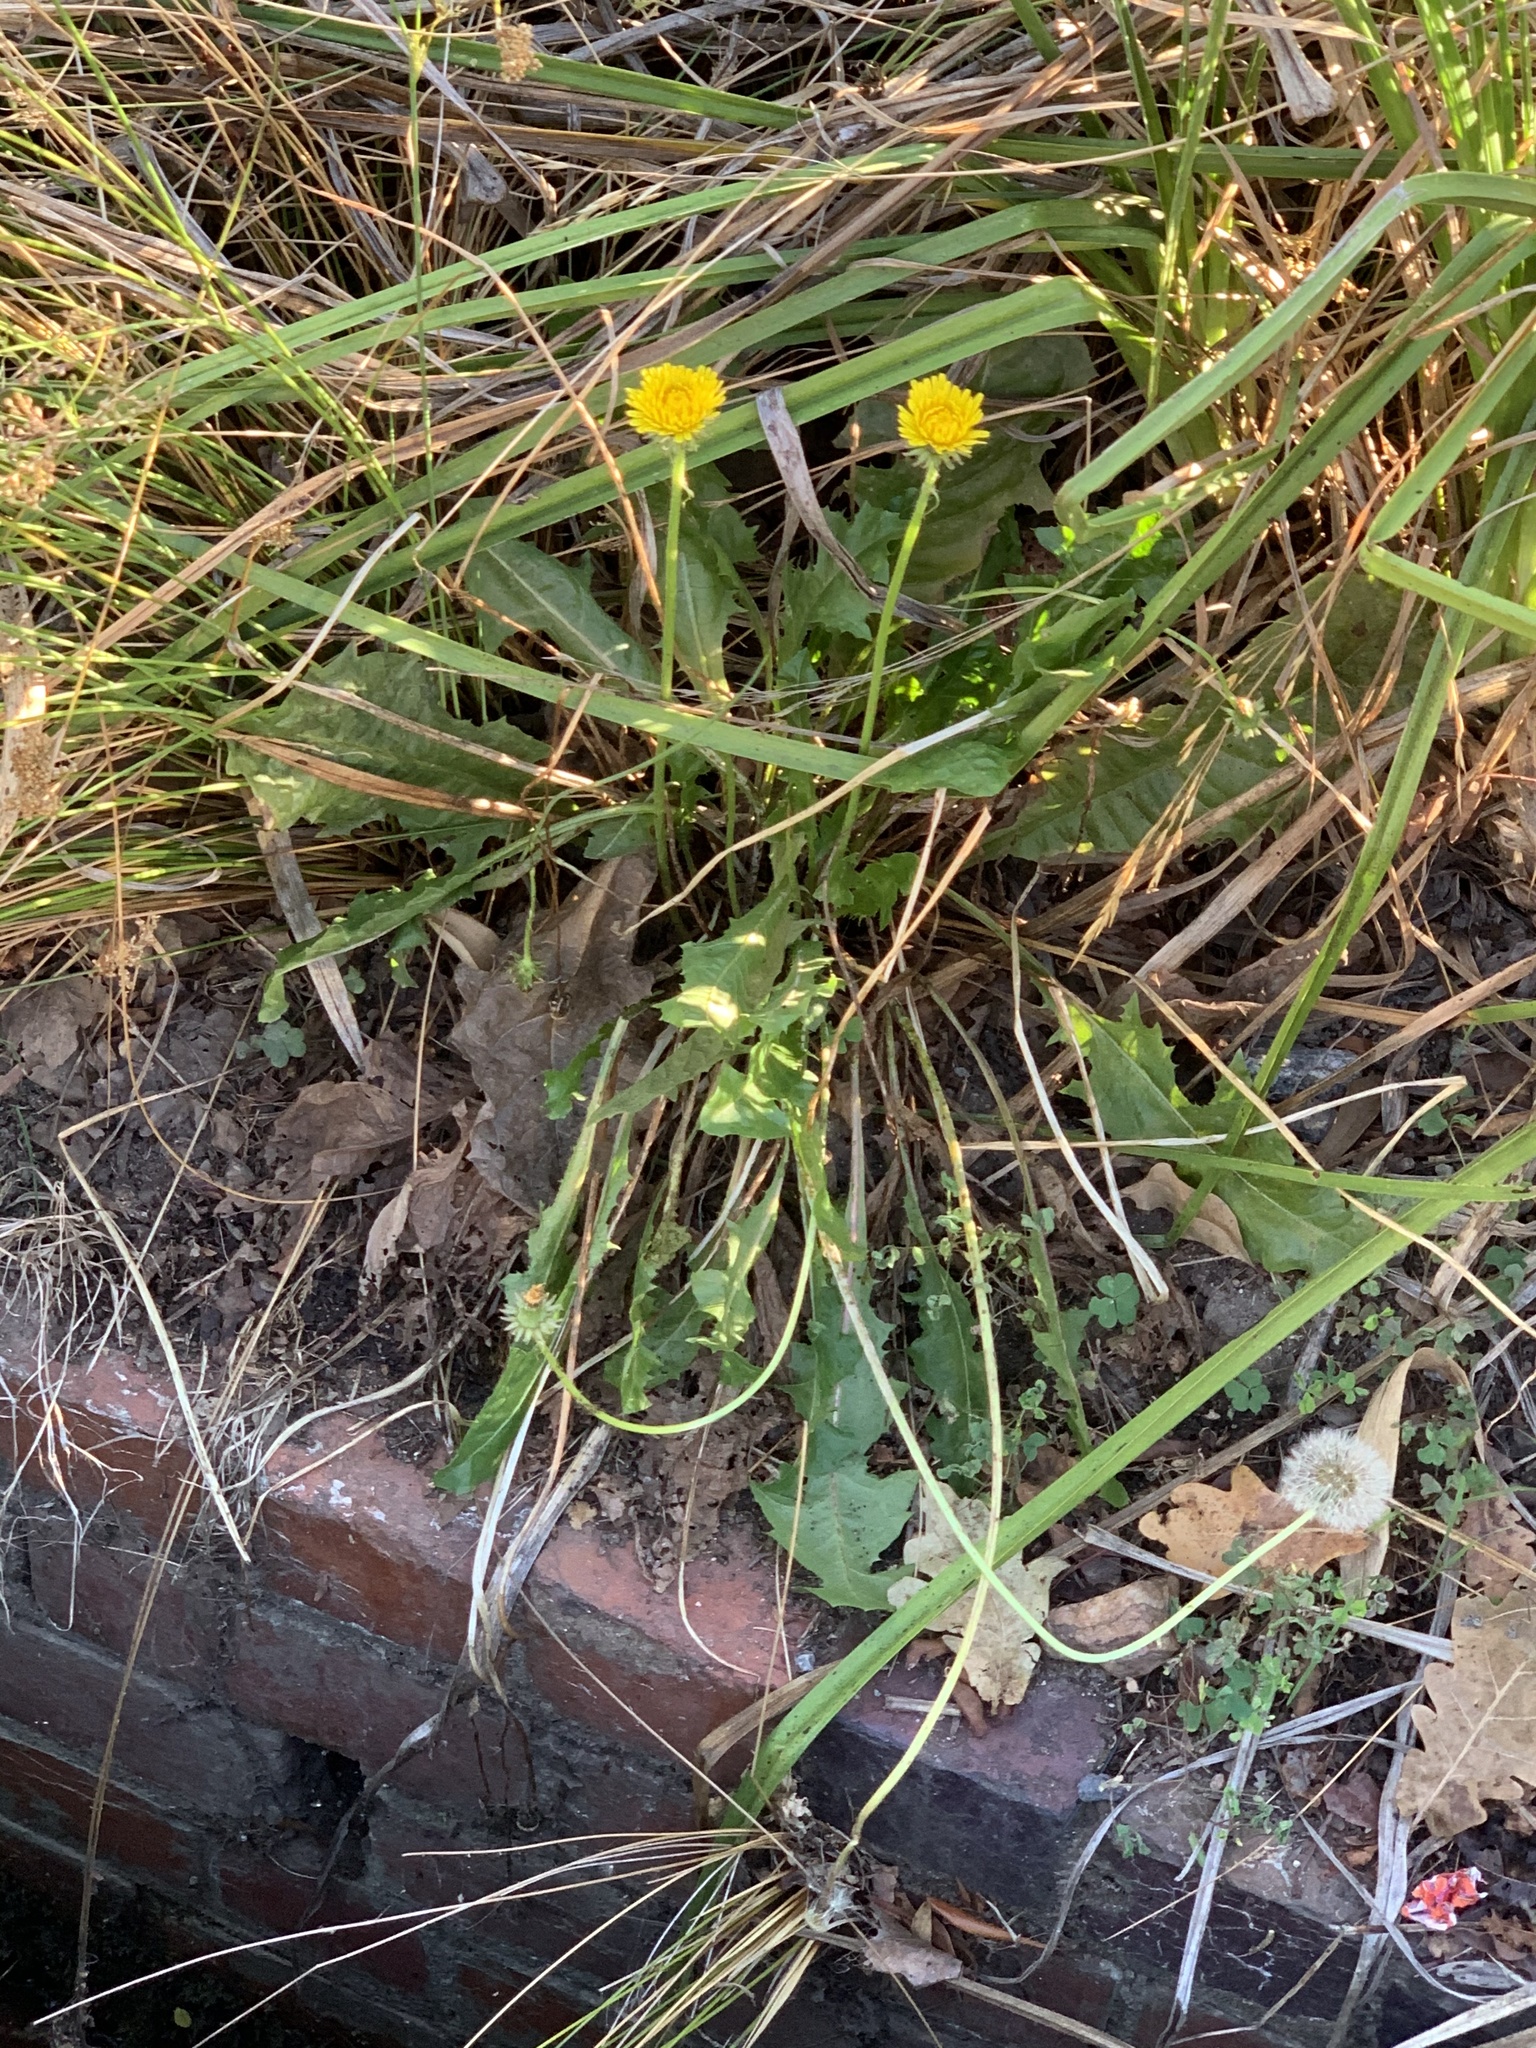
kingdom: Plantae
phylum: Tracheophyta
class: Magnoliopsida
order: Asterales
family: Asteraceae
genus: Taraxacum
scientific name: Taraxacum officinale
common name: Common dandelion
